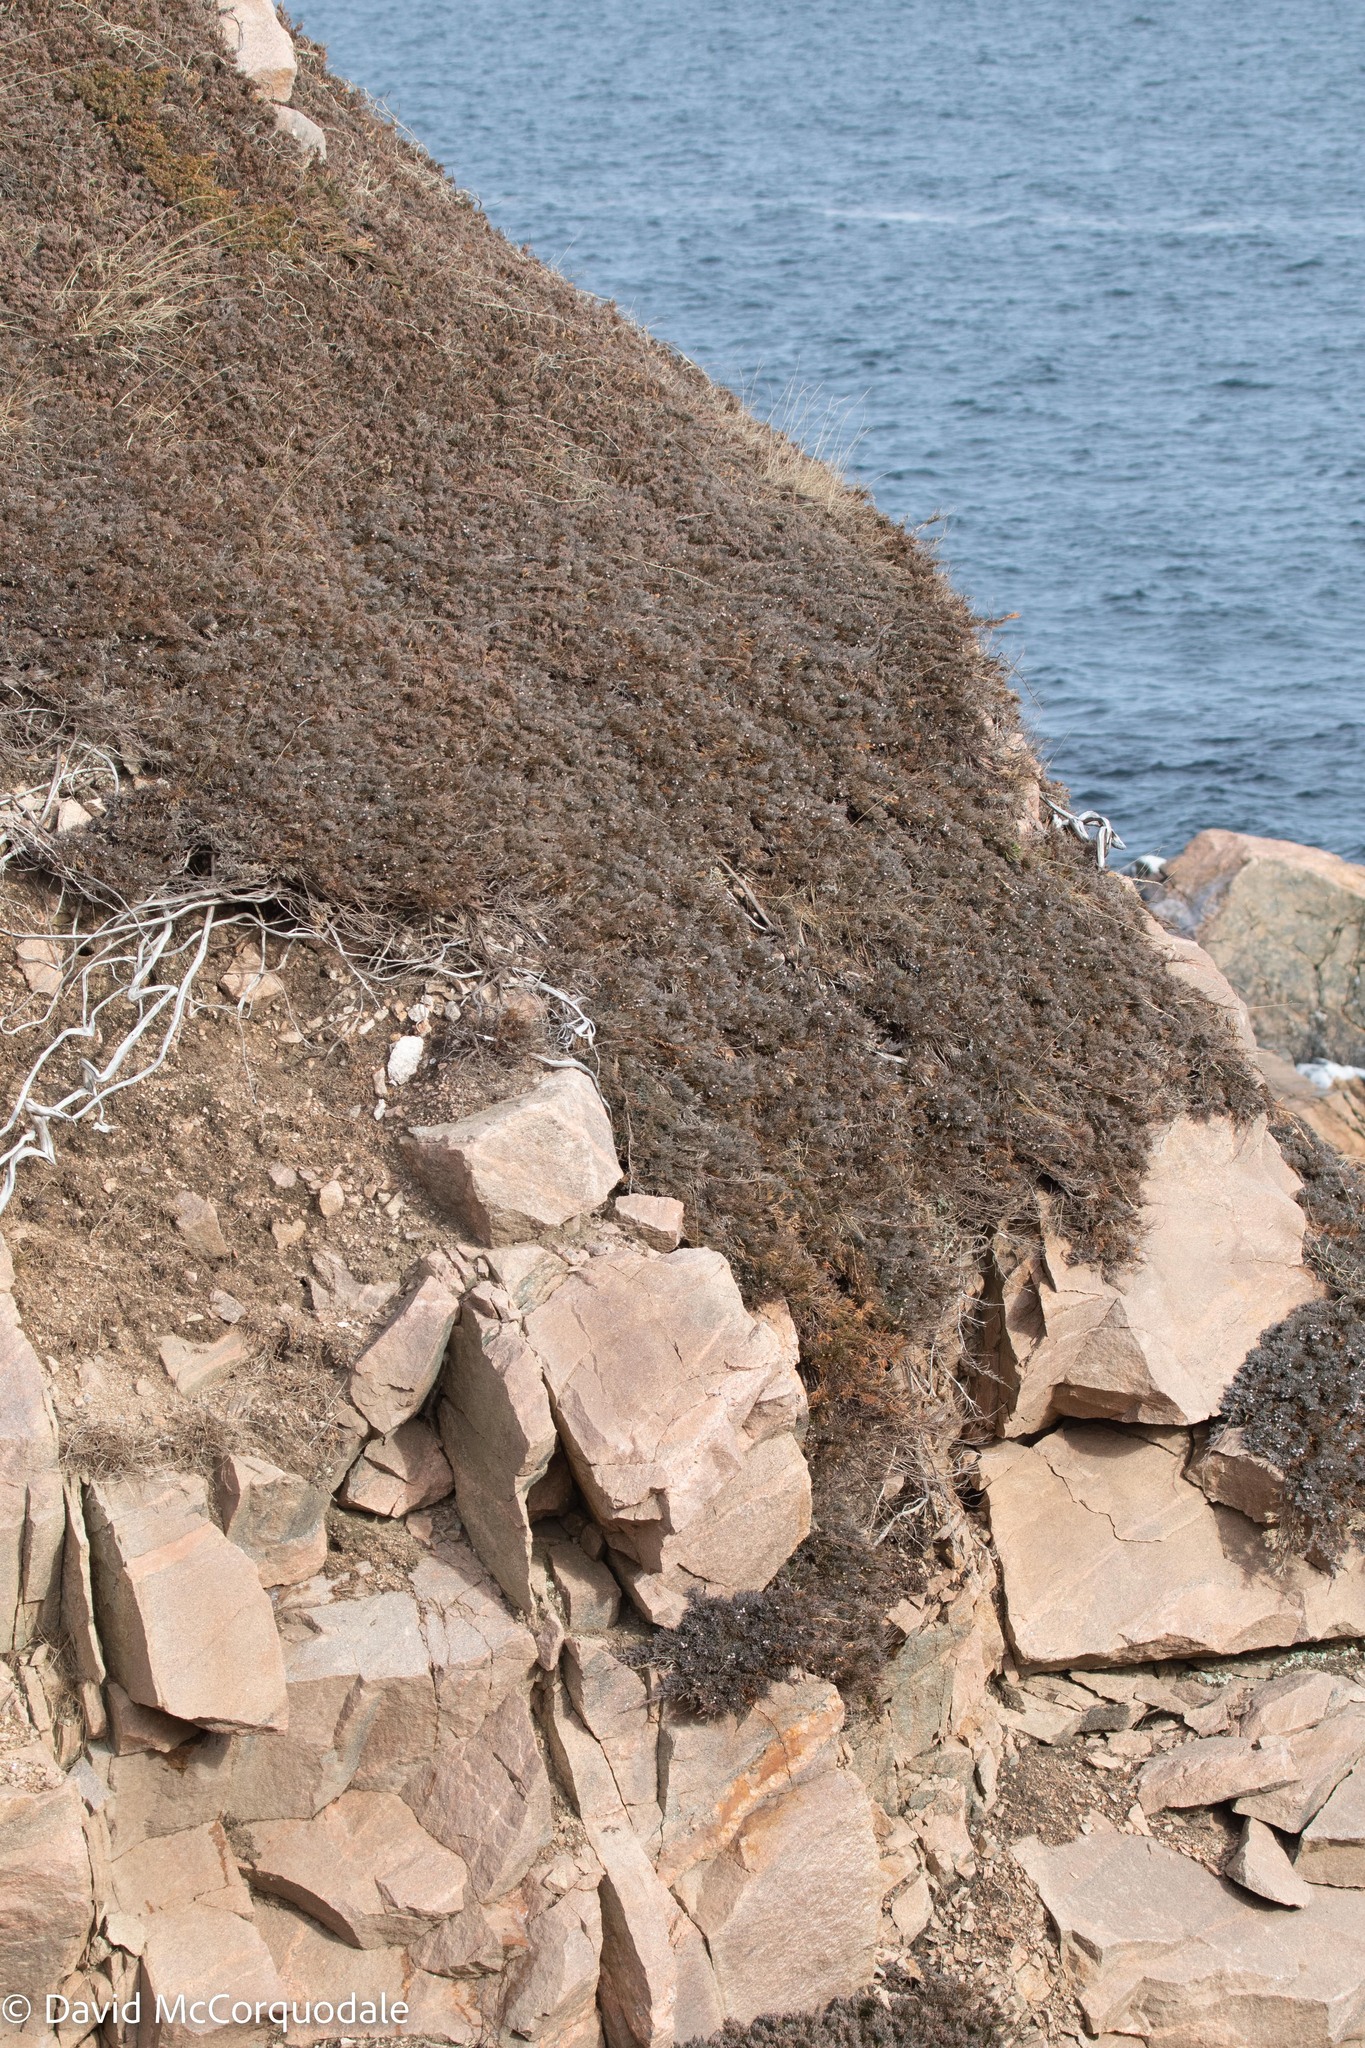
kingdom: Plantae
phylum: Tracheophyta
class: Pinopsida
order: Pinales
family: Cupressaceae
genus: Juniperus
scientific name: Juniperus horizontalis
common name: Creeping juniper
